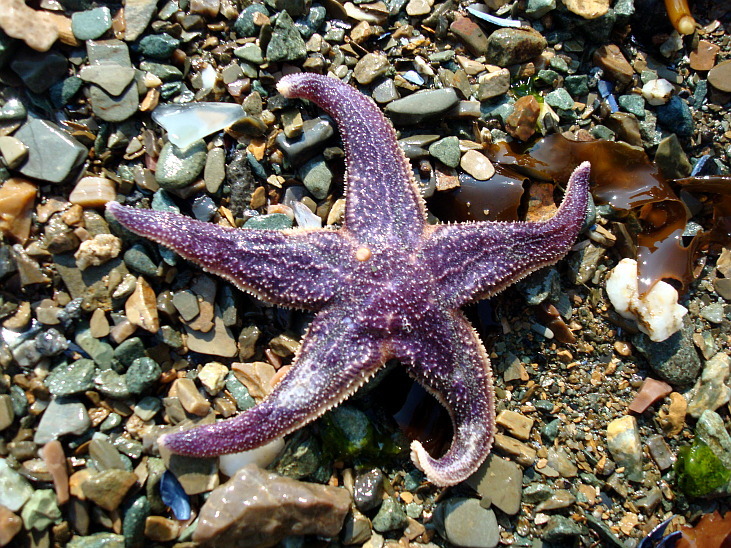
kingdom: Animalia
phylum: Echinodermata
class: Asteroidea
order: Forcipulatida
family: Asteriidae
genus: Asterias
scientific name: Asterias rathbuni
